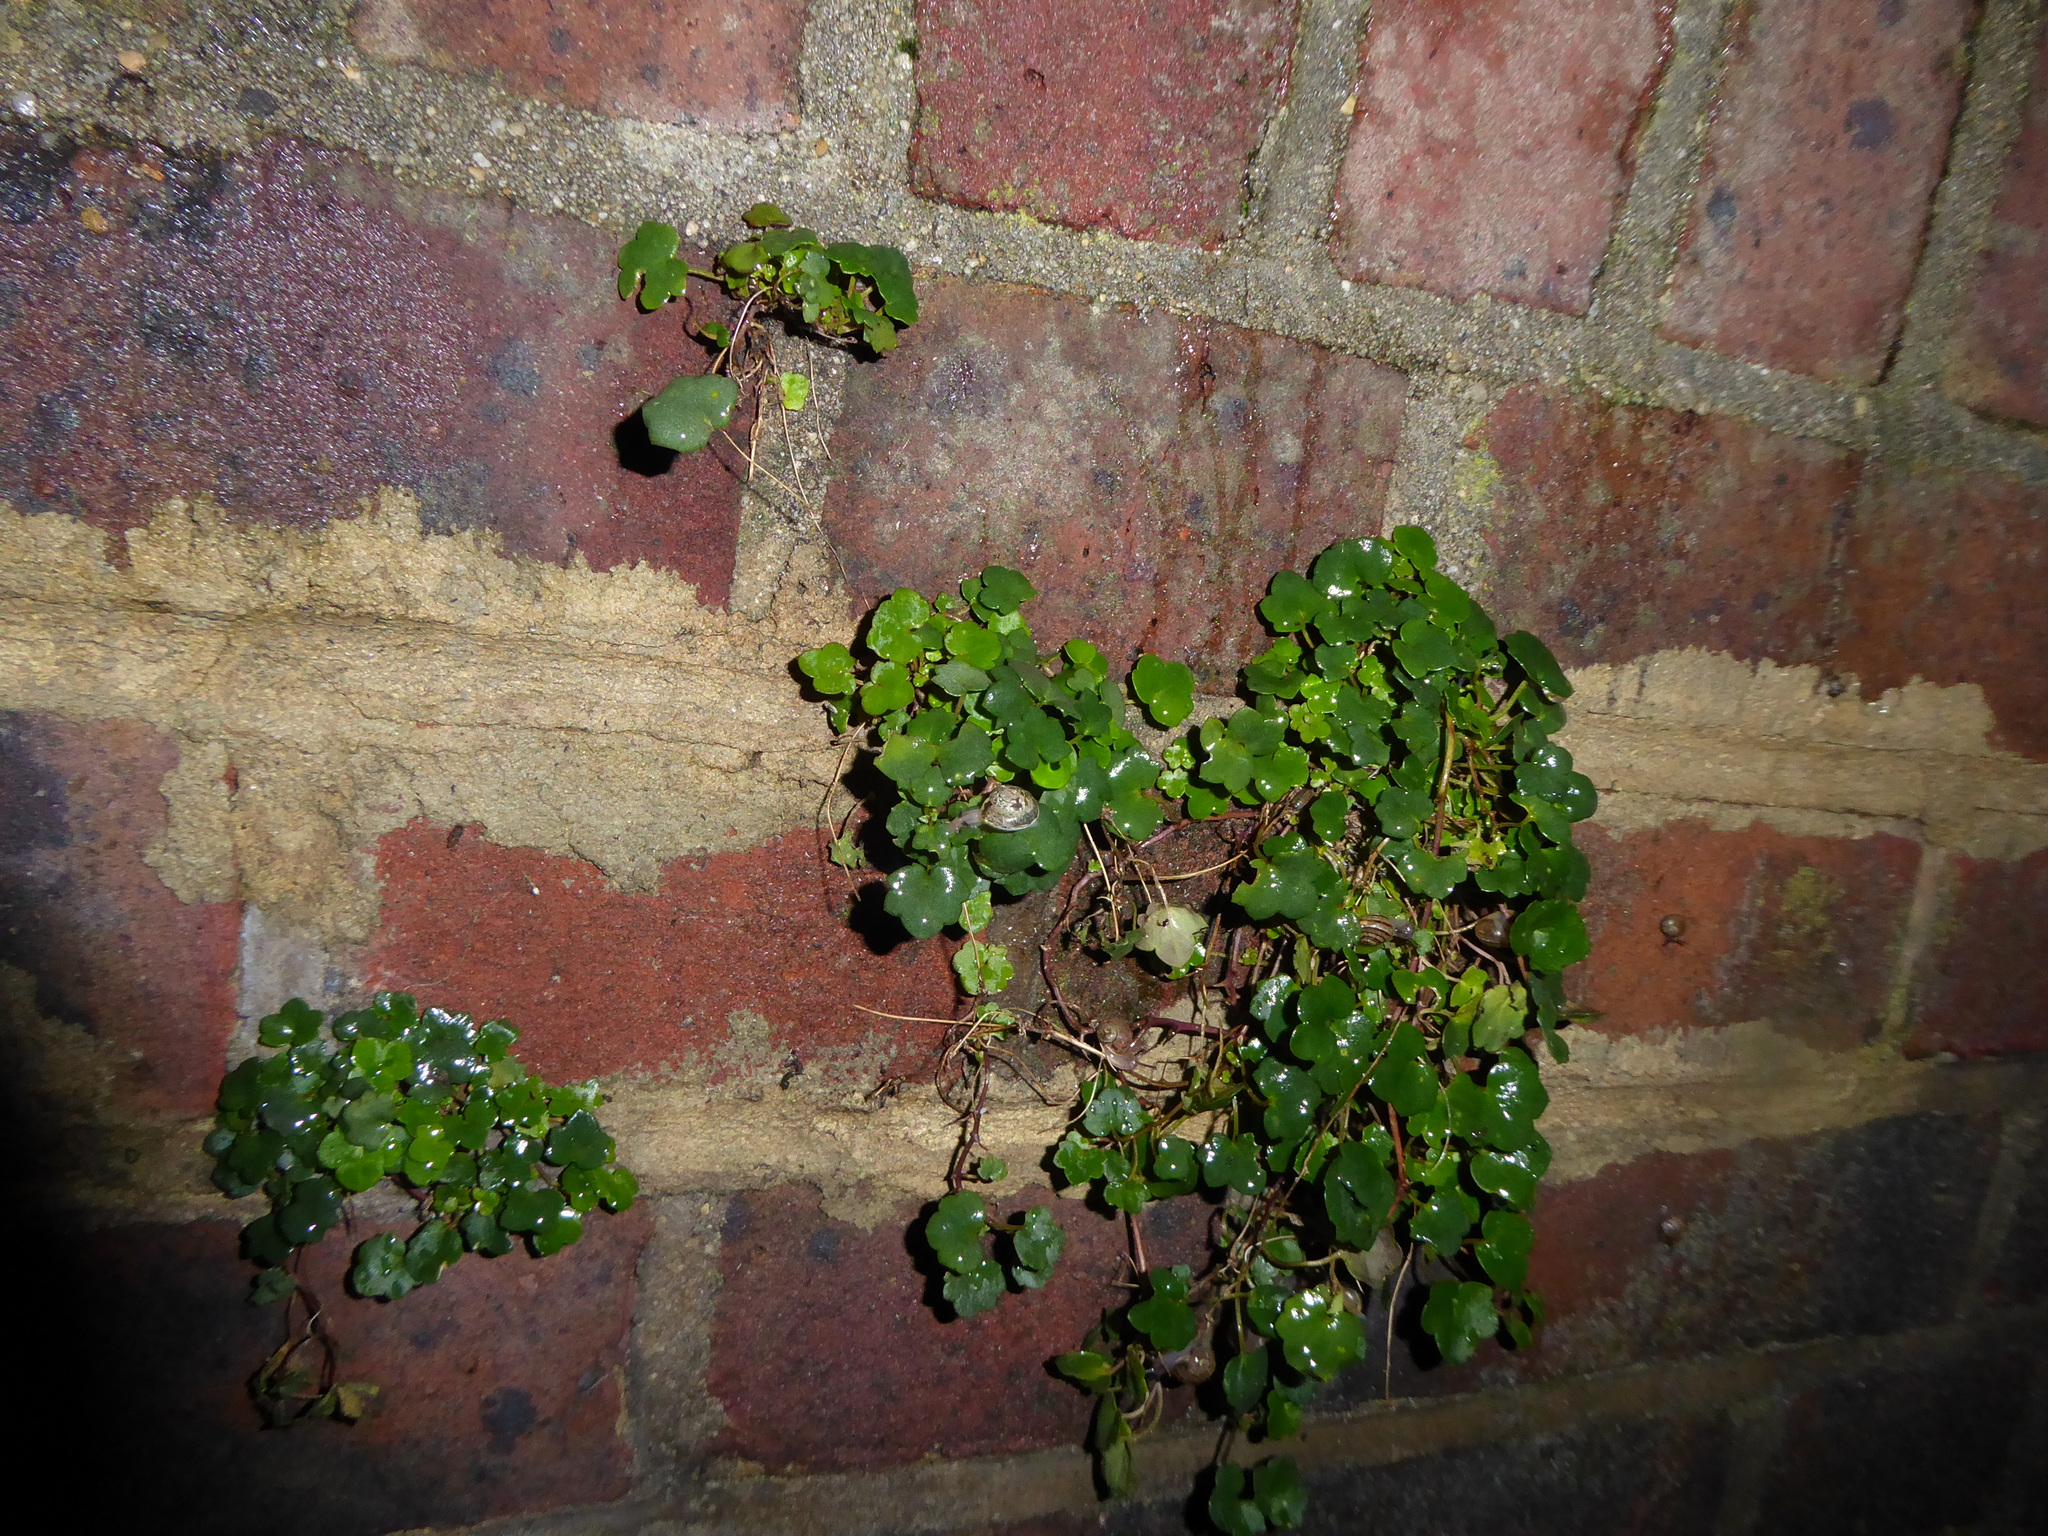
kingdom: Plantae
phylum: Tracheophyta
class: Magnoliopsida
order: Lamiales
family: Plantaginaceae
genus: Cymbalaria
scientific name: Cymbalaria muralis
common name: Ivy-leaved toadflax
